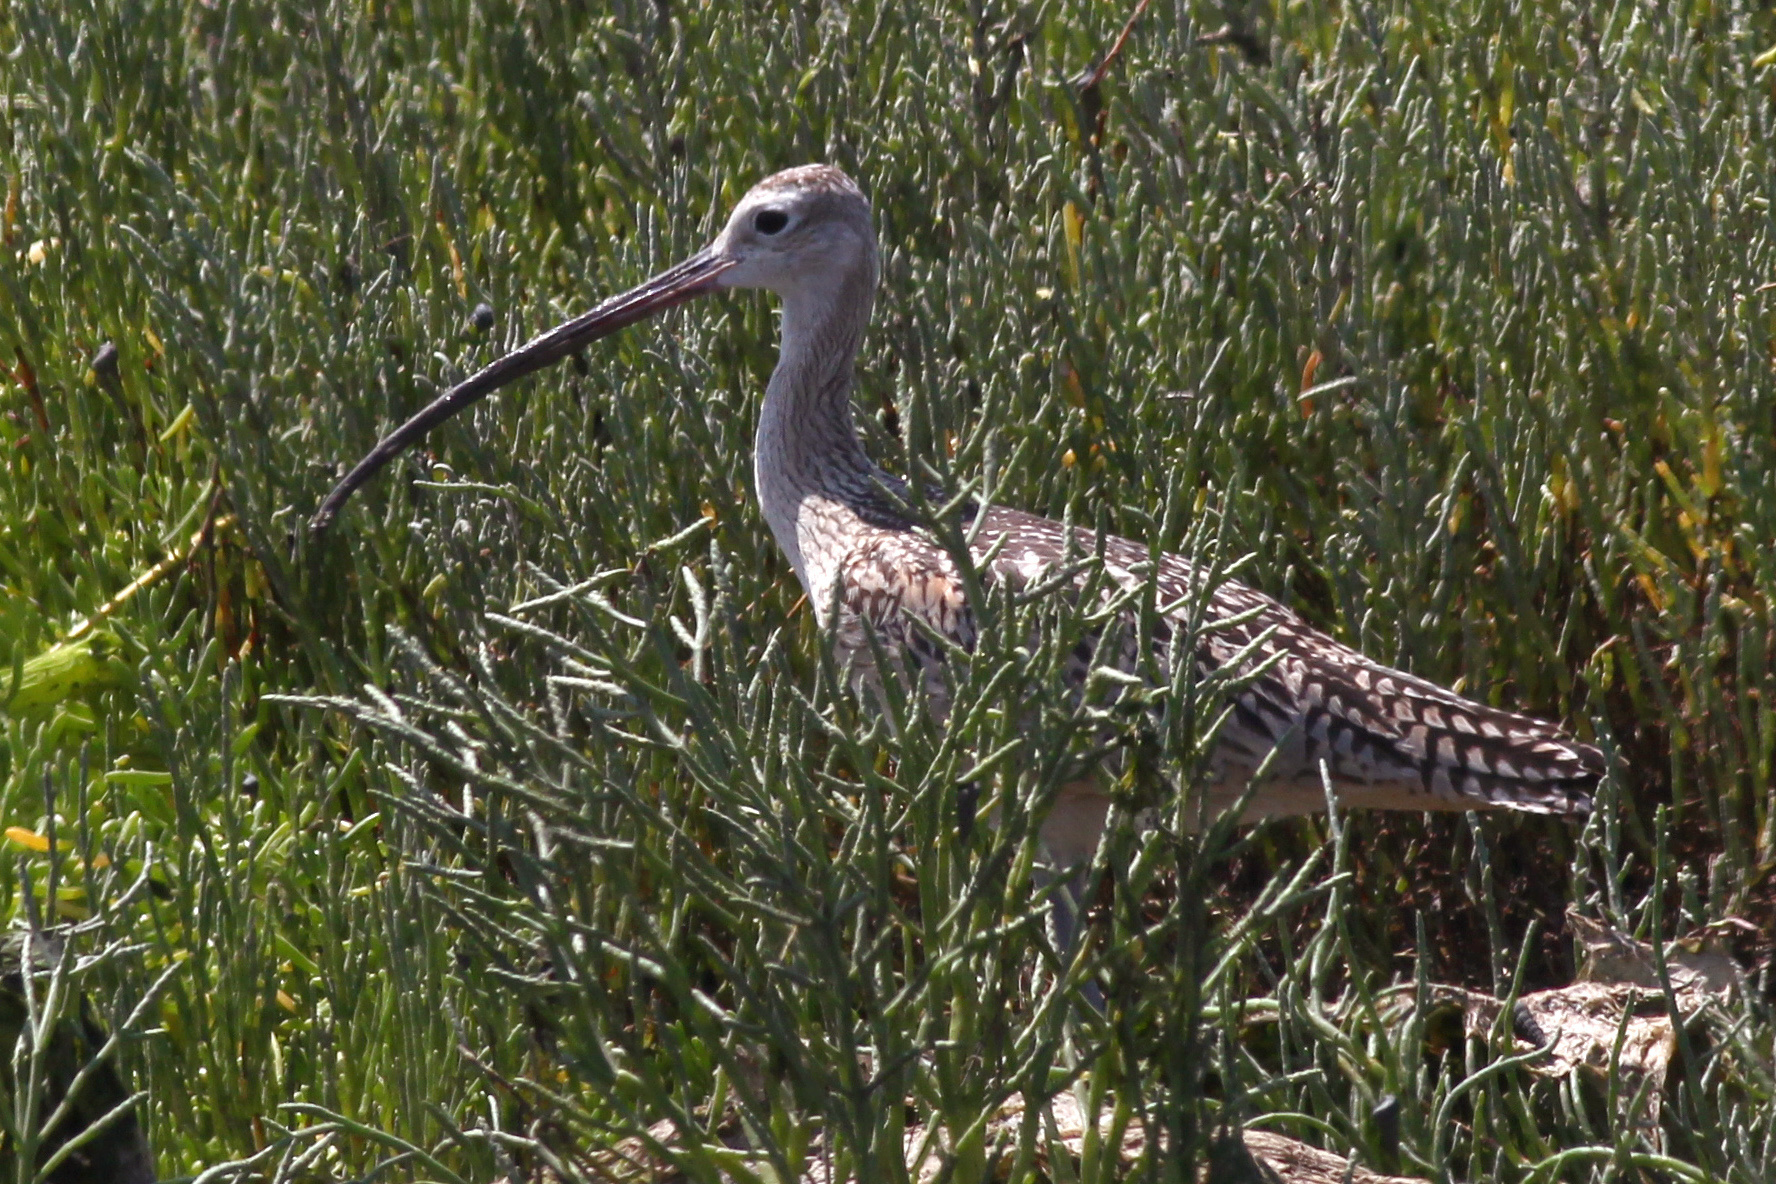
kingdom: Animalia
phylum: Chordata
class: Aves
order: Charadriiformes
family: Scolopacidae
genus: Numenius
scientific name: Numenius americanus
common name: Long-billed curlew
